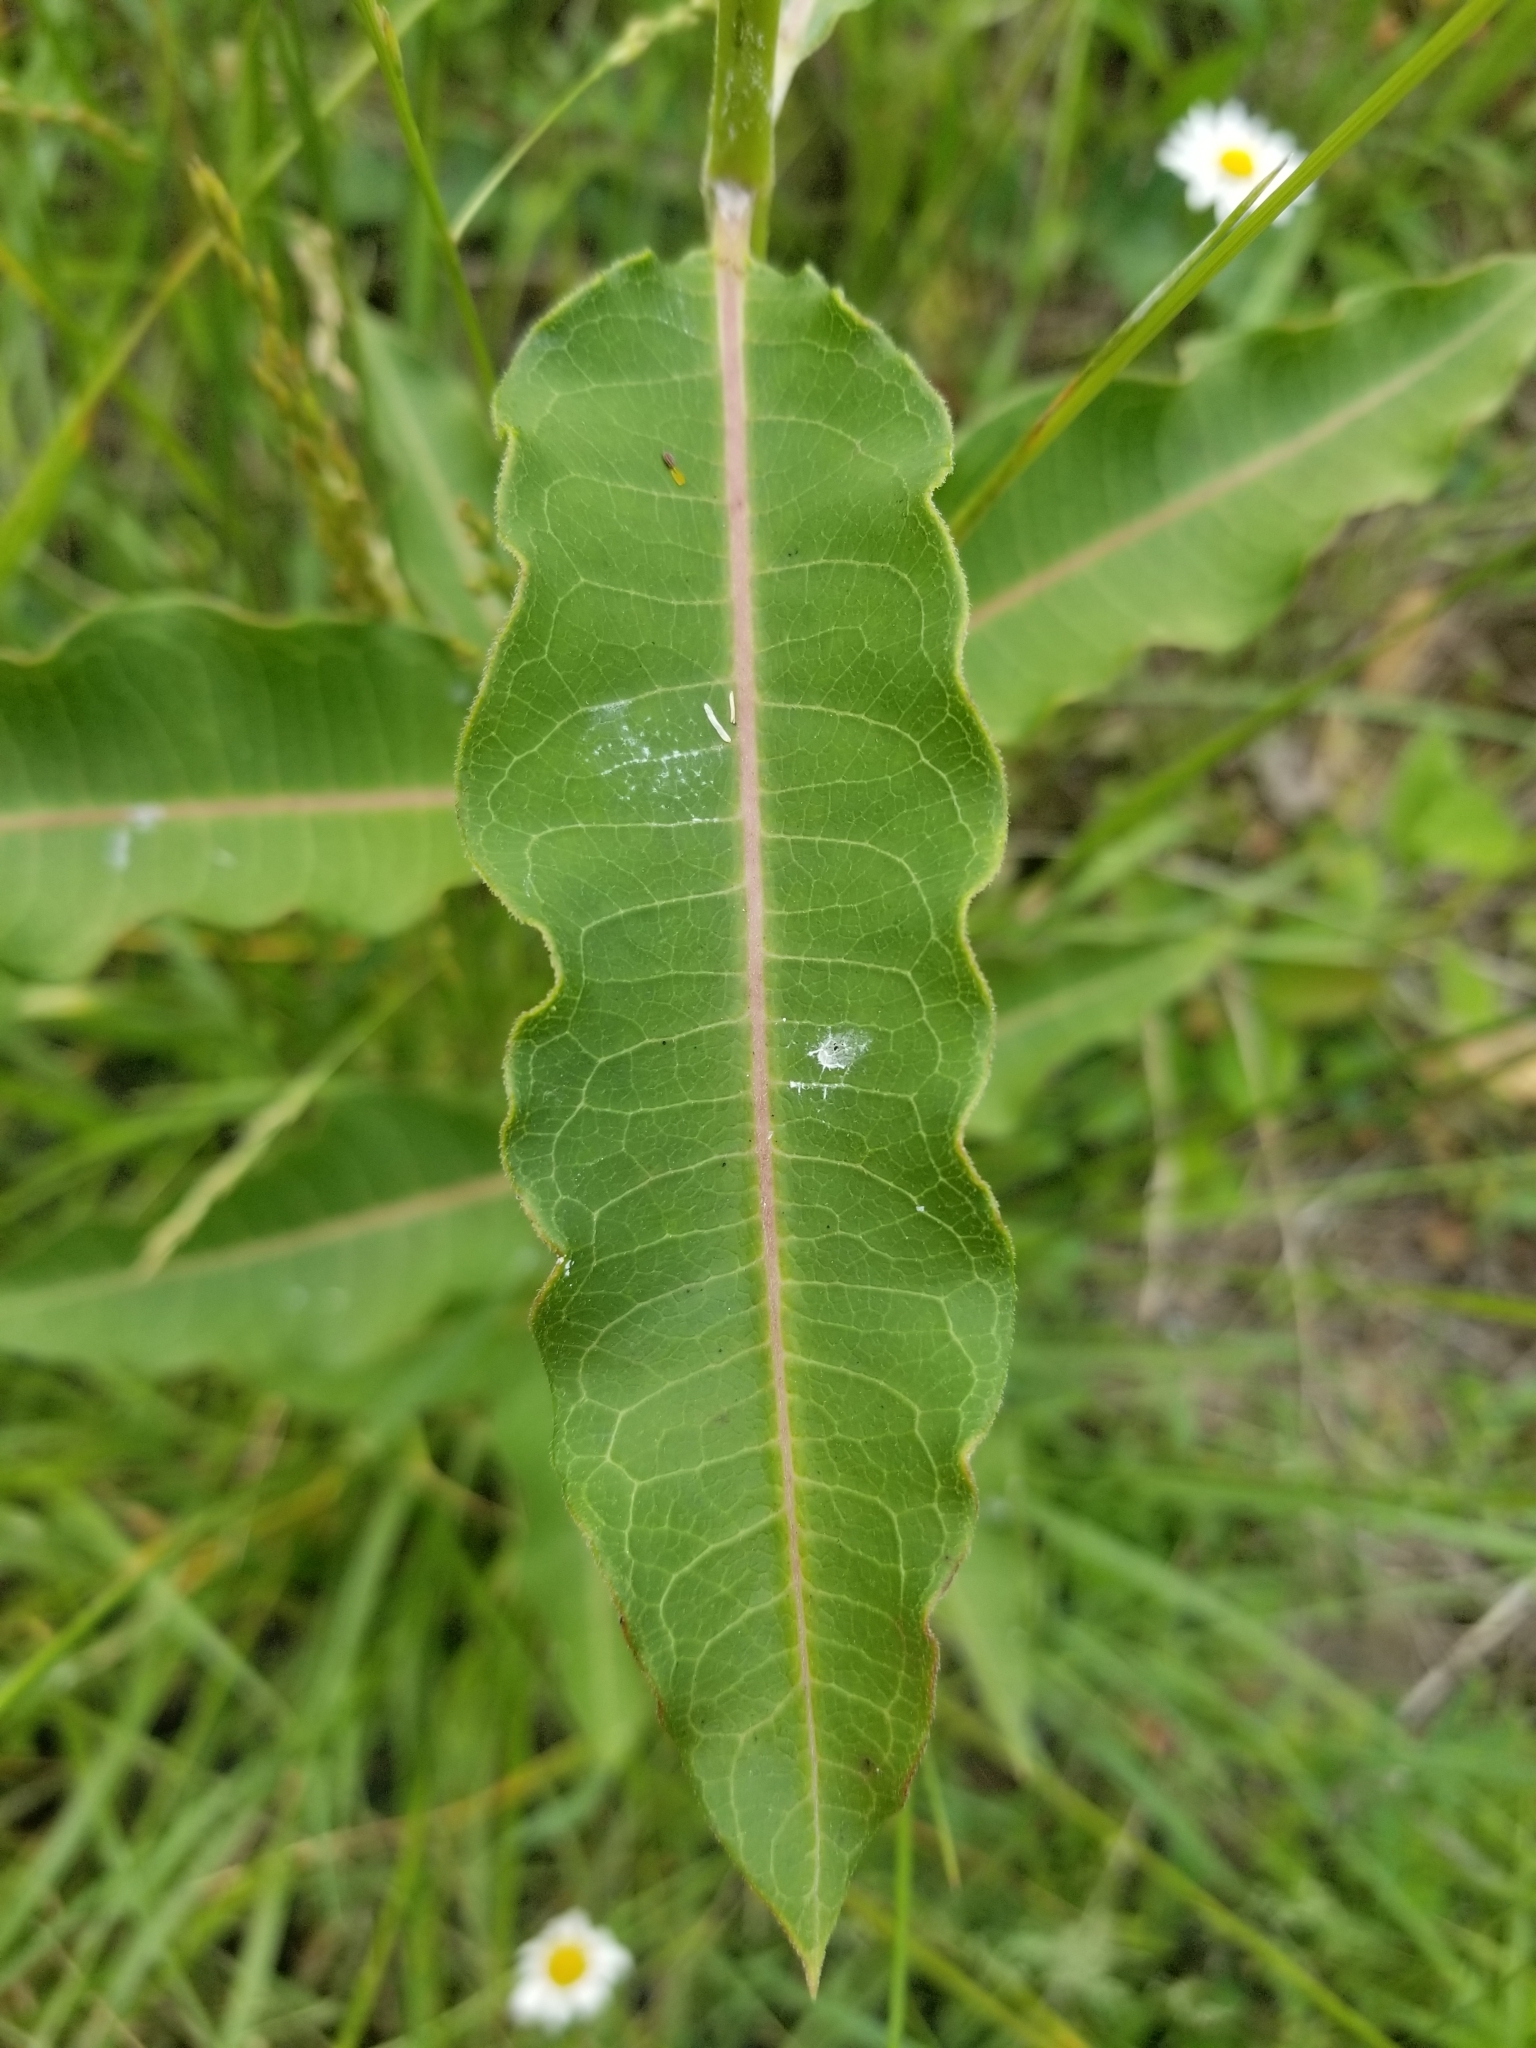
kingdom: Plantae
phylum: Tracheophyta
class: Magnoliopsida
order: Gentianales
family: Apocynaceae
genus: Asclepias
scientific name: Asclepias purpurascens
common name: Purple milkweed
